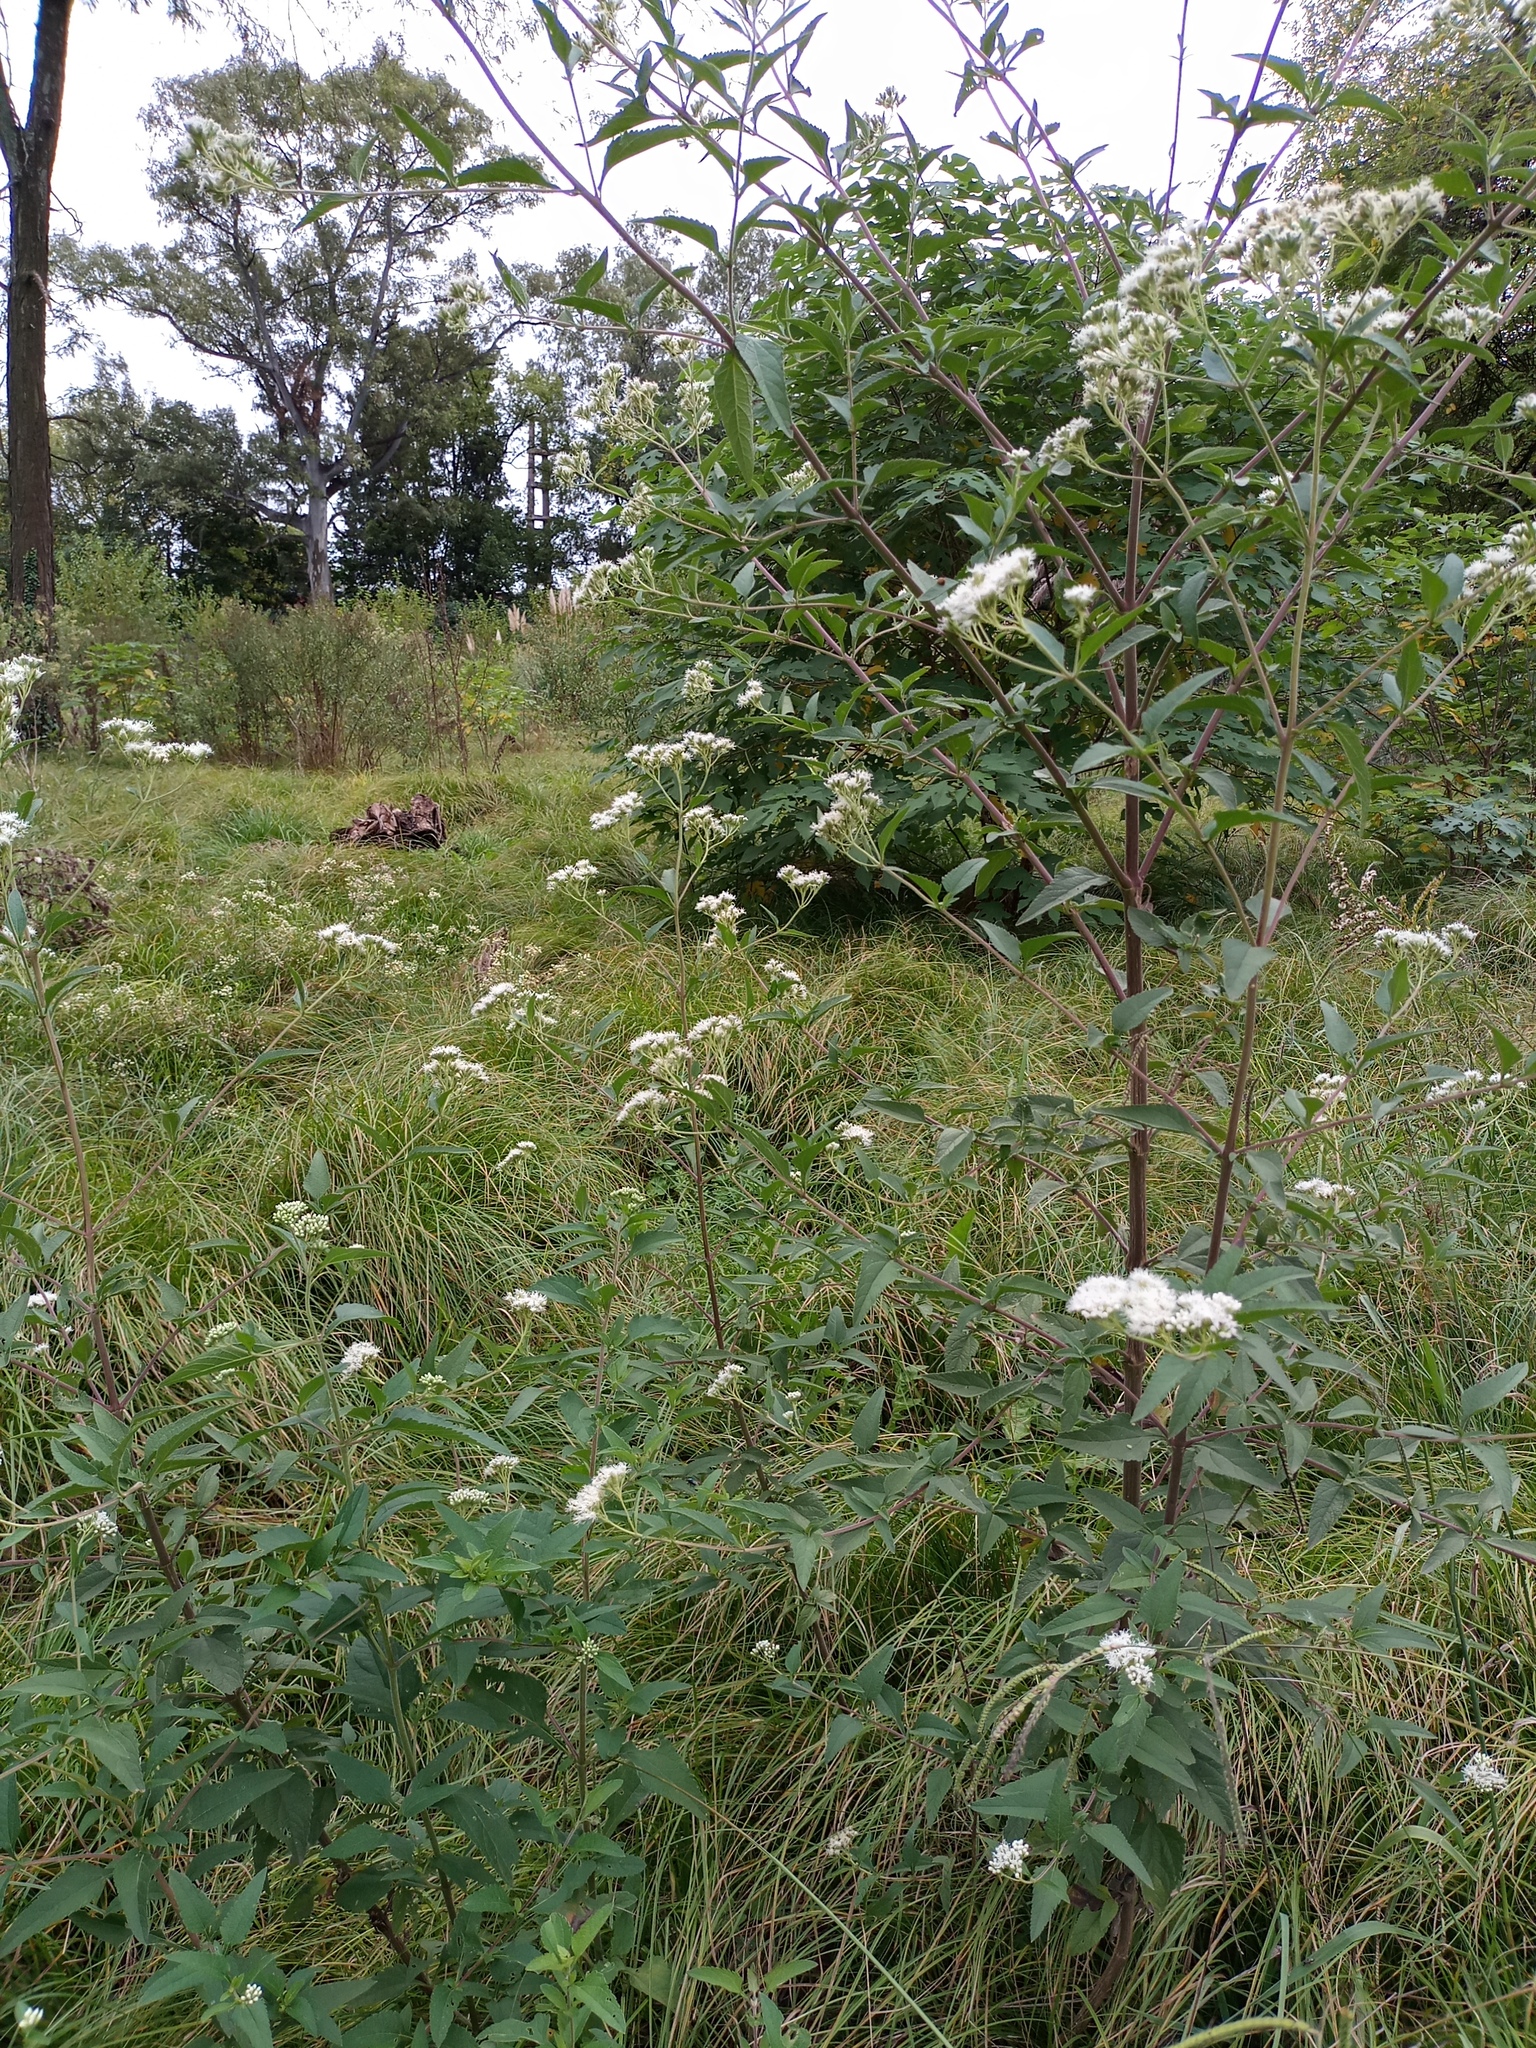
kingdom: Plantae
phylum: Tracheophyta
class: Magnoliopsida
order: Asterales
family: Asteraceae
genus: Austroeupatorium
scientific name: Austroeupatorium inulifolium
